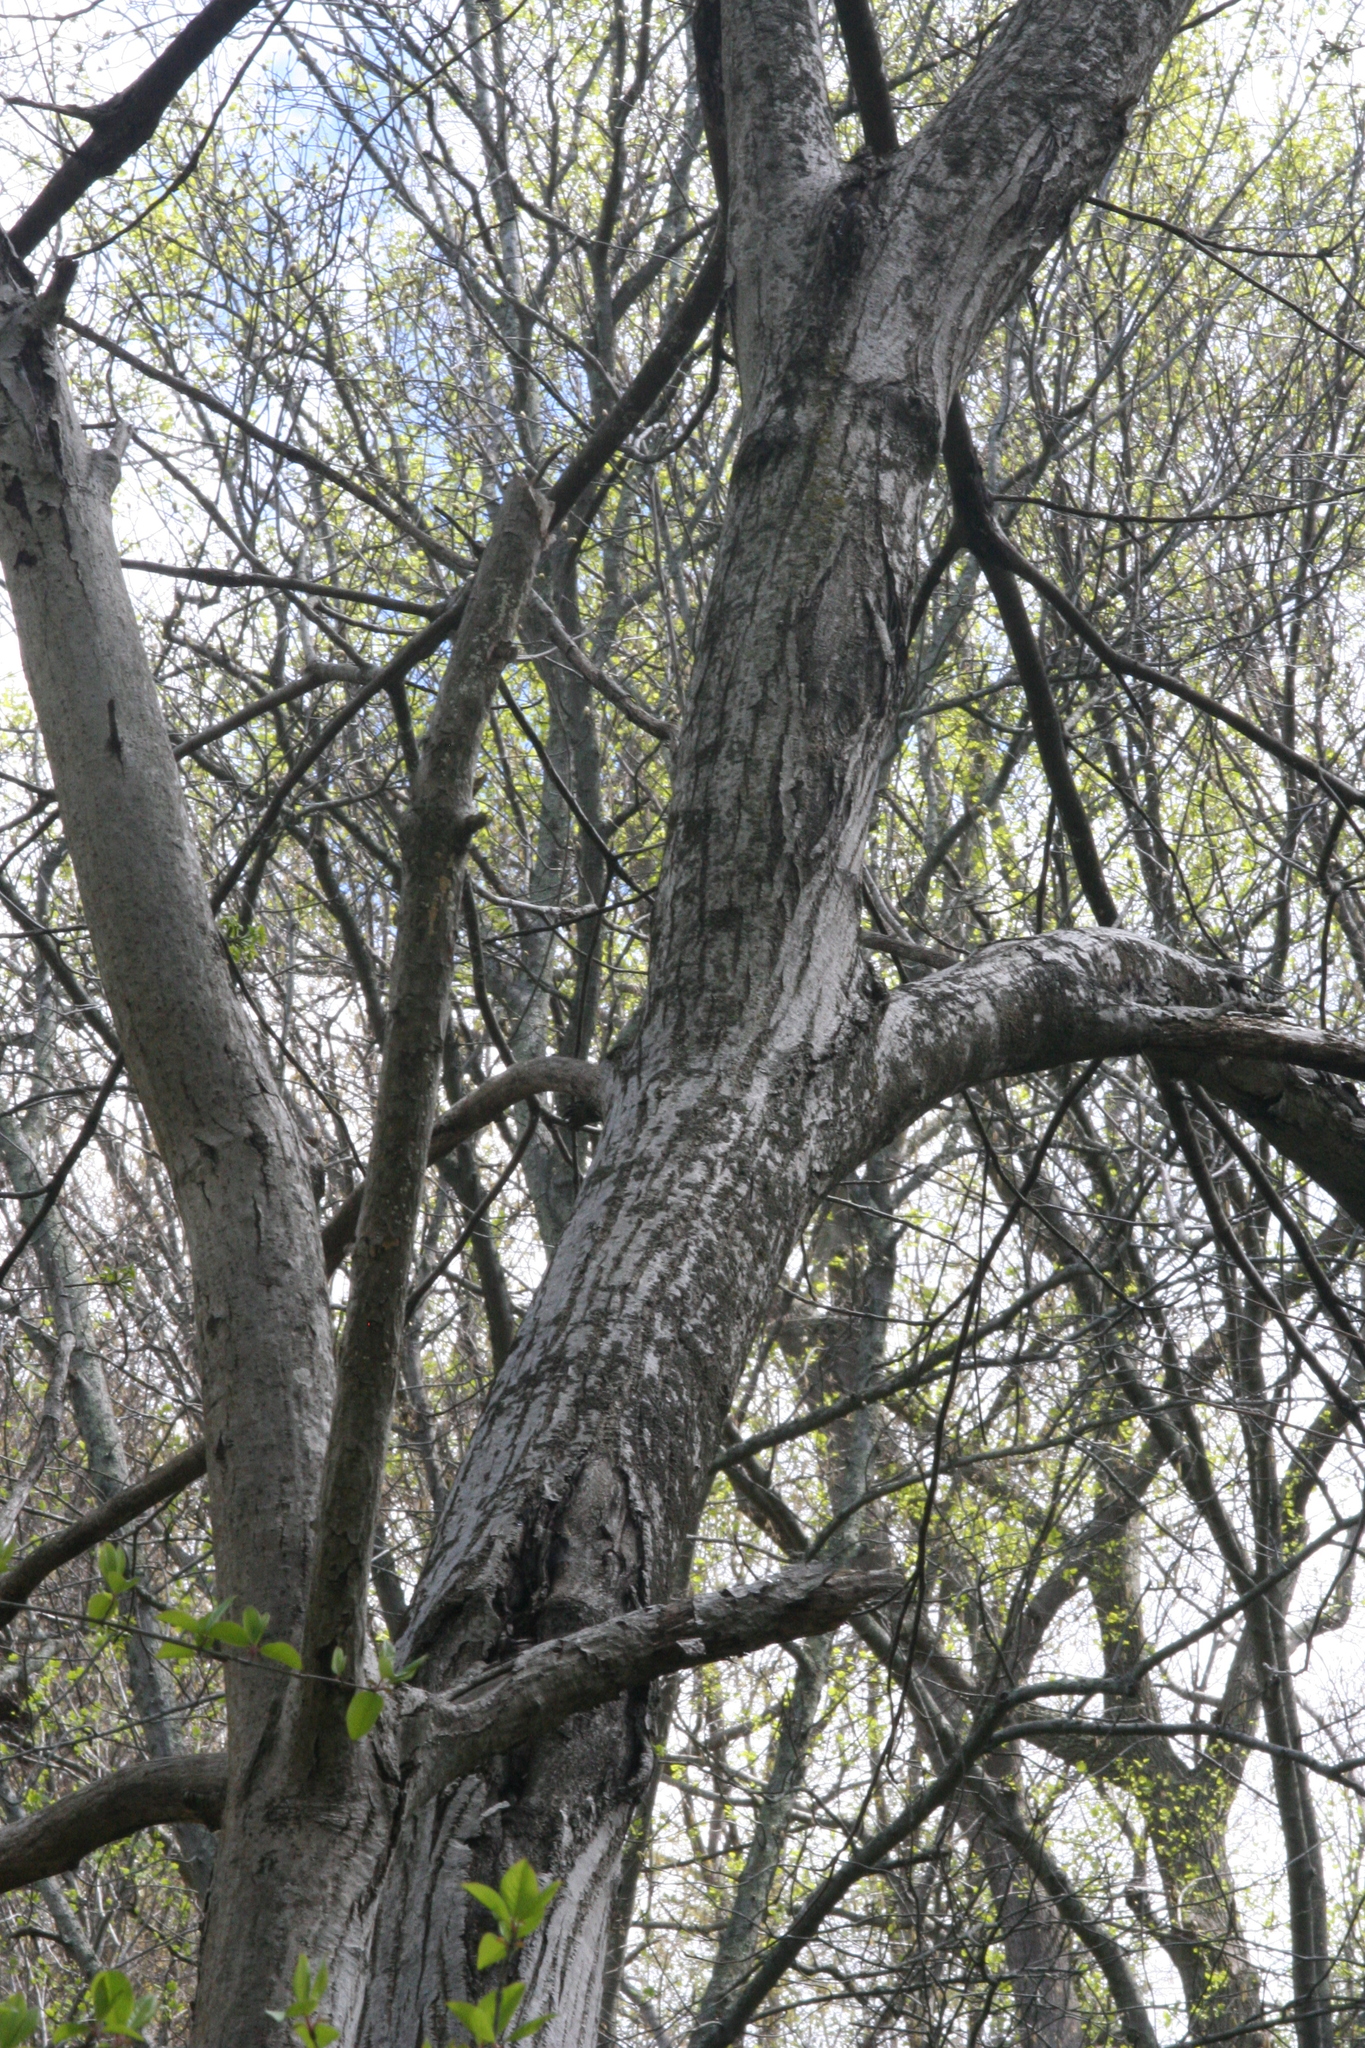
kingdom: Plantae
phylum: Tracheophyta
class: Magnoliopsida
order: Fagales
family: Juglandaceae
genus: Juglans
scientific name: Juglans cinerea
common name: Butternut
